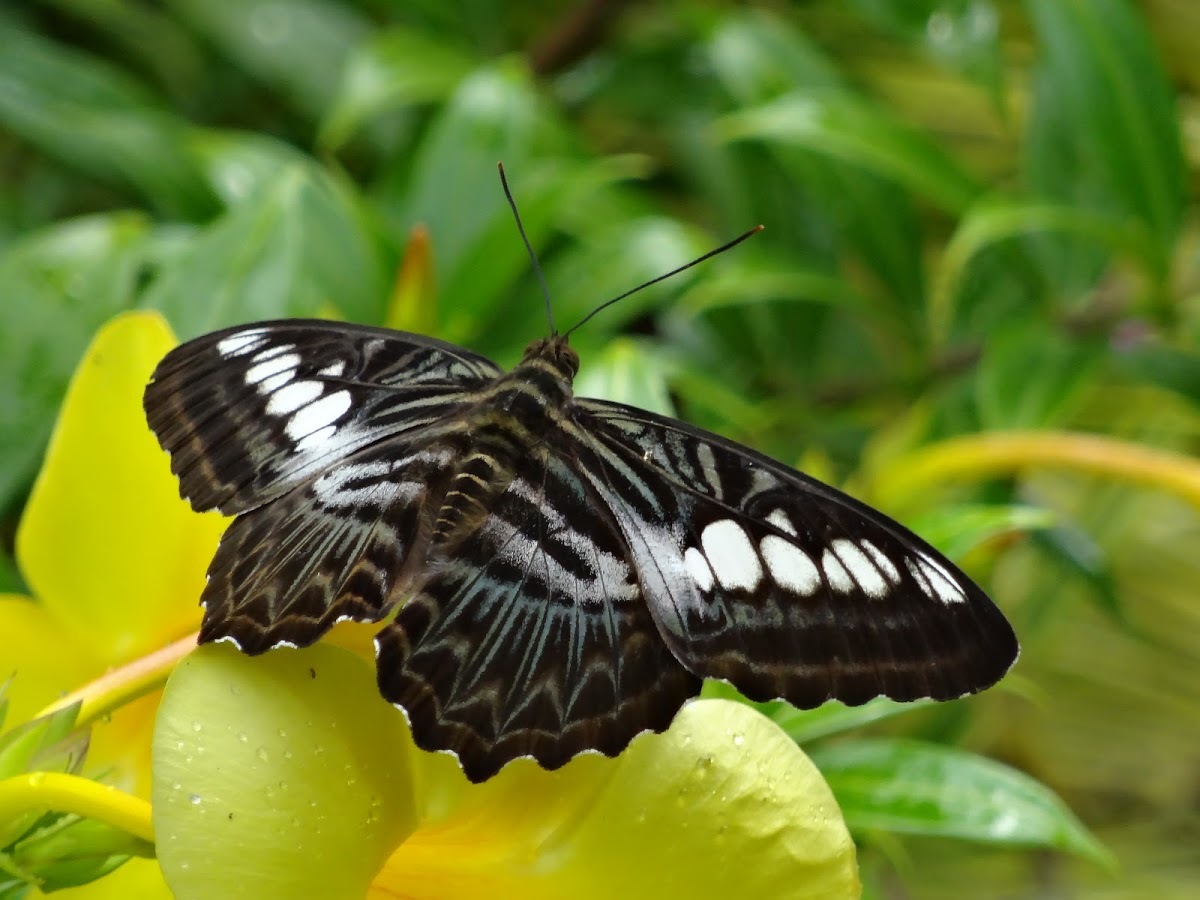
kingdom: Animalia
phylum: Arthropoda
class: Insecta
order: Lepidoptera
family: Nymphalidae
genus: Kallima
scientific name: Kallima sylvia
